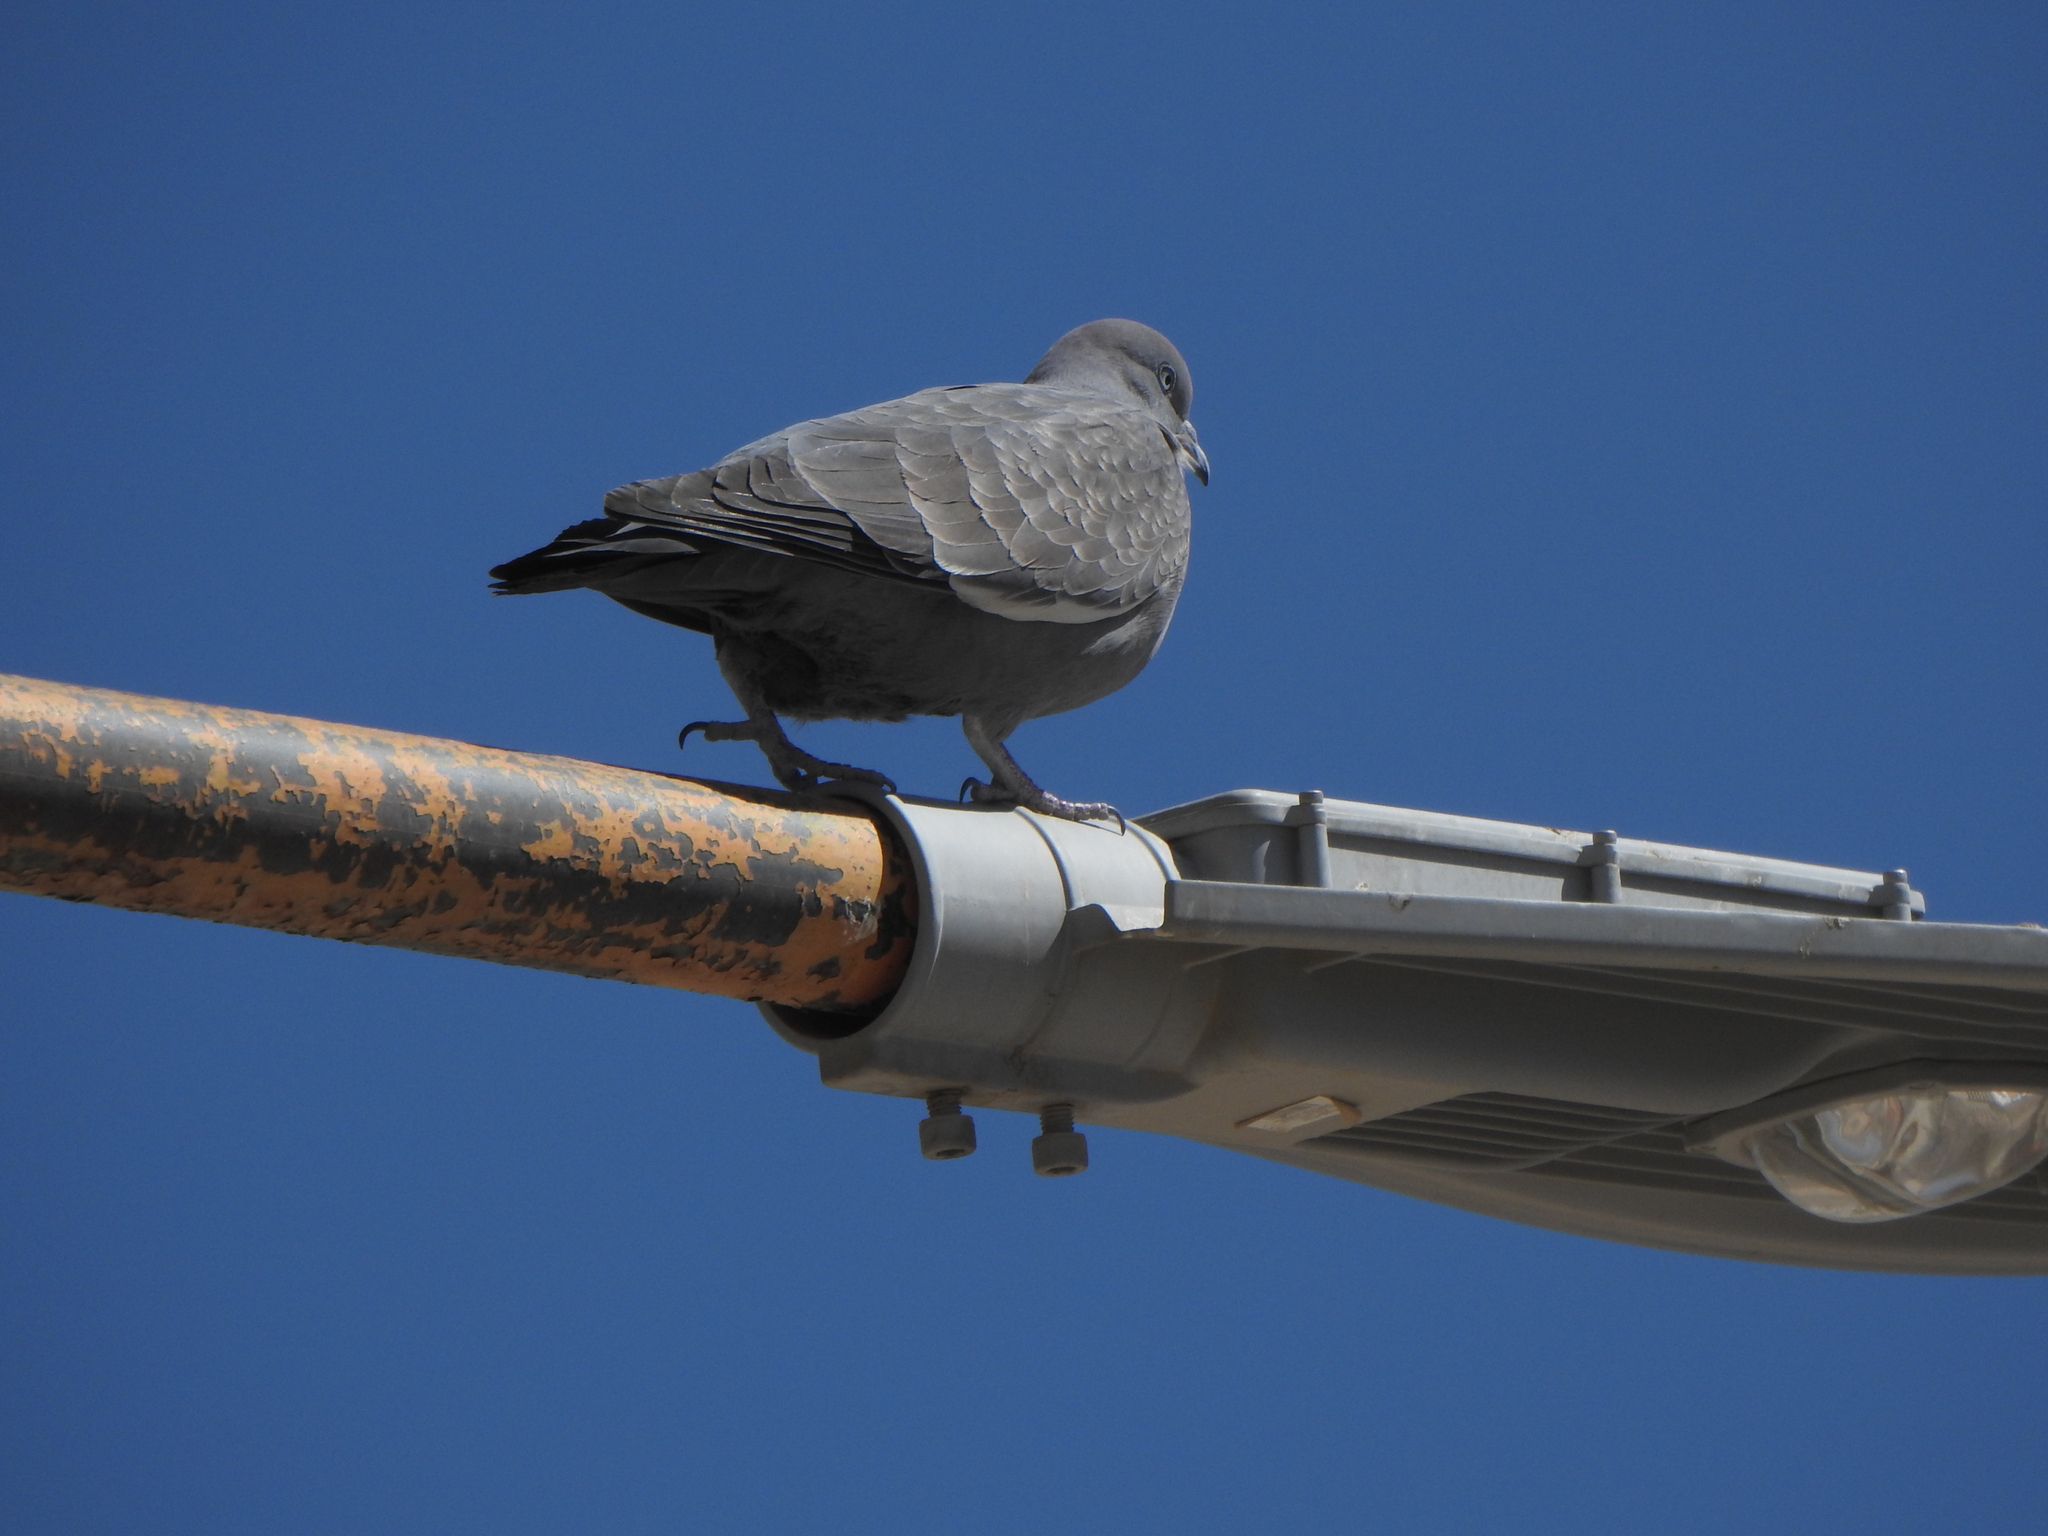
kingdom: Animalia
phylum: Chordata
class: Aves
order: Columbiformes
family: Columbidae
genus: Patagioenas
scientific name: Patagioenas maculosa
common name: Spot-winged pigeon
